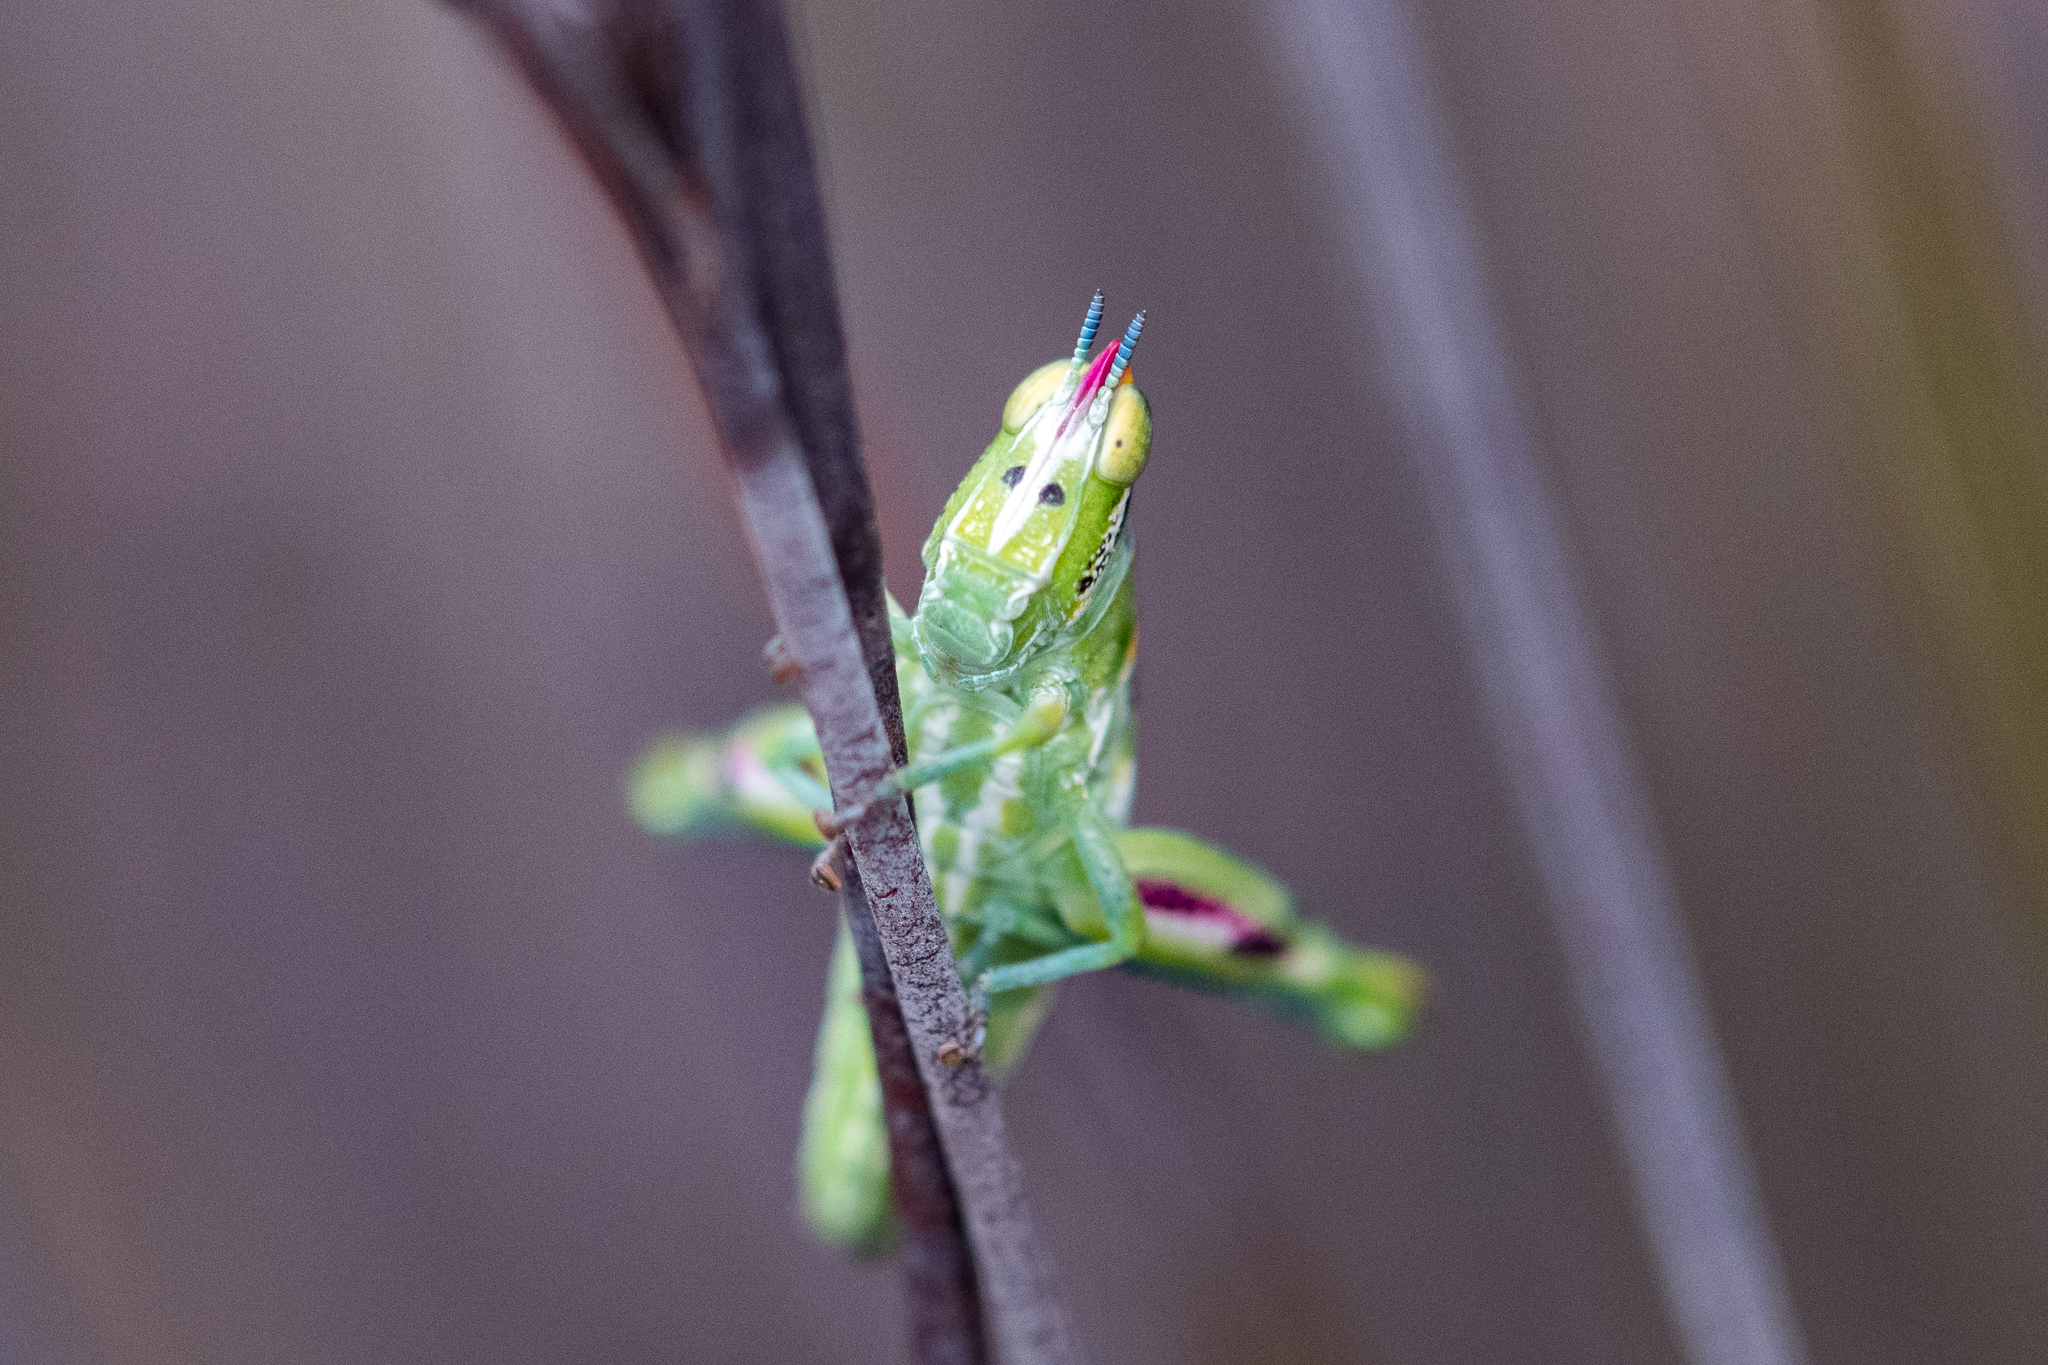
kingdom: Animalia
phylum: Arthropoda
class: Insecta
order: Orthoptera
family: Thericleidae
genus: Thericlesiella
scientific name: Thericlesiella meridionalis
